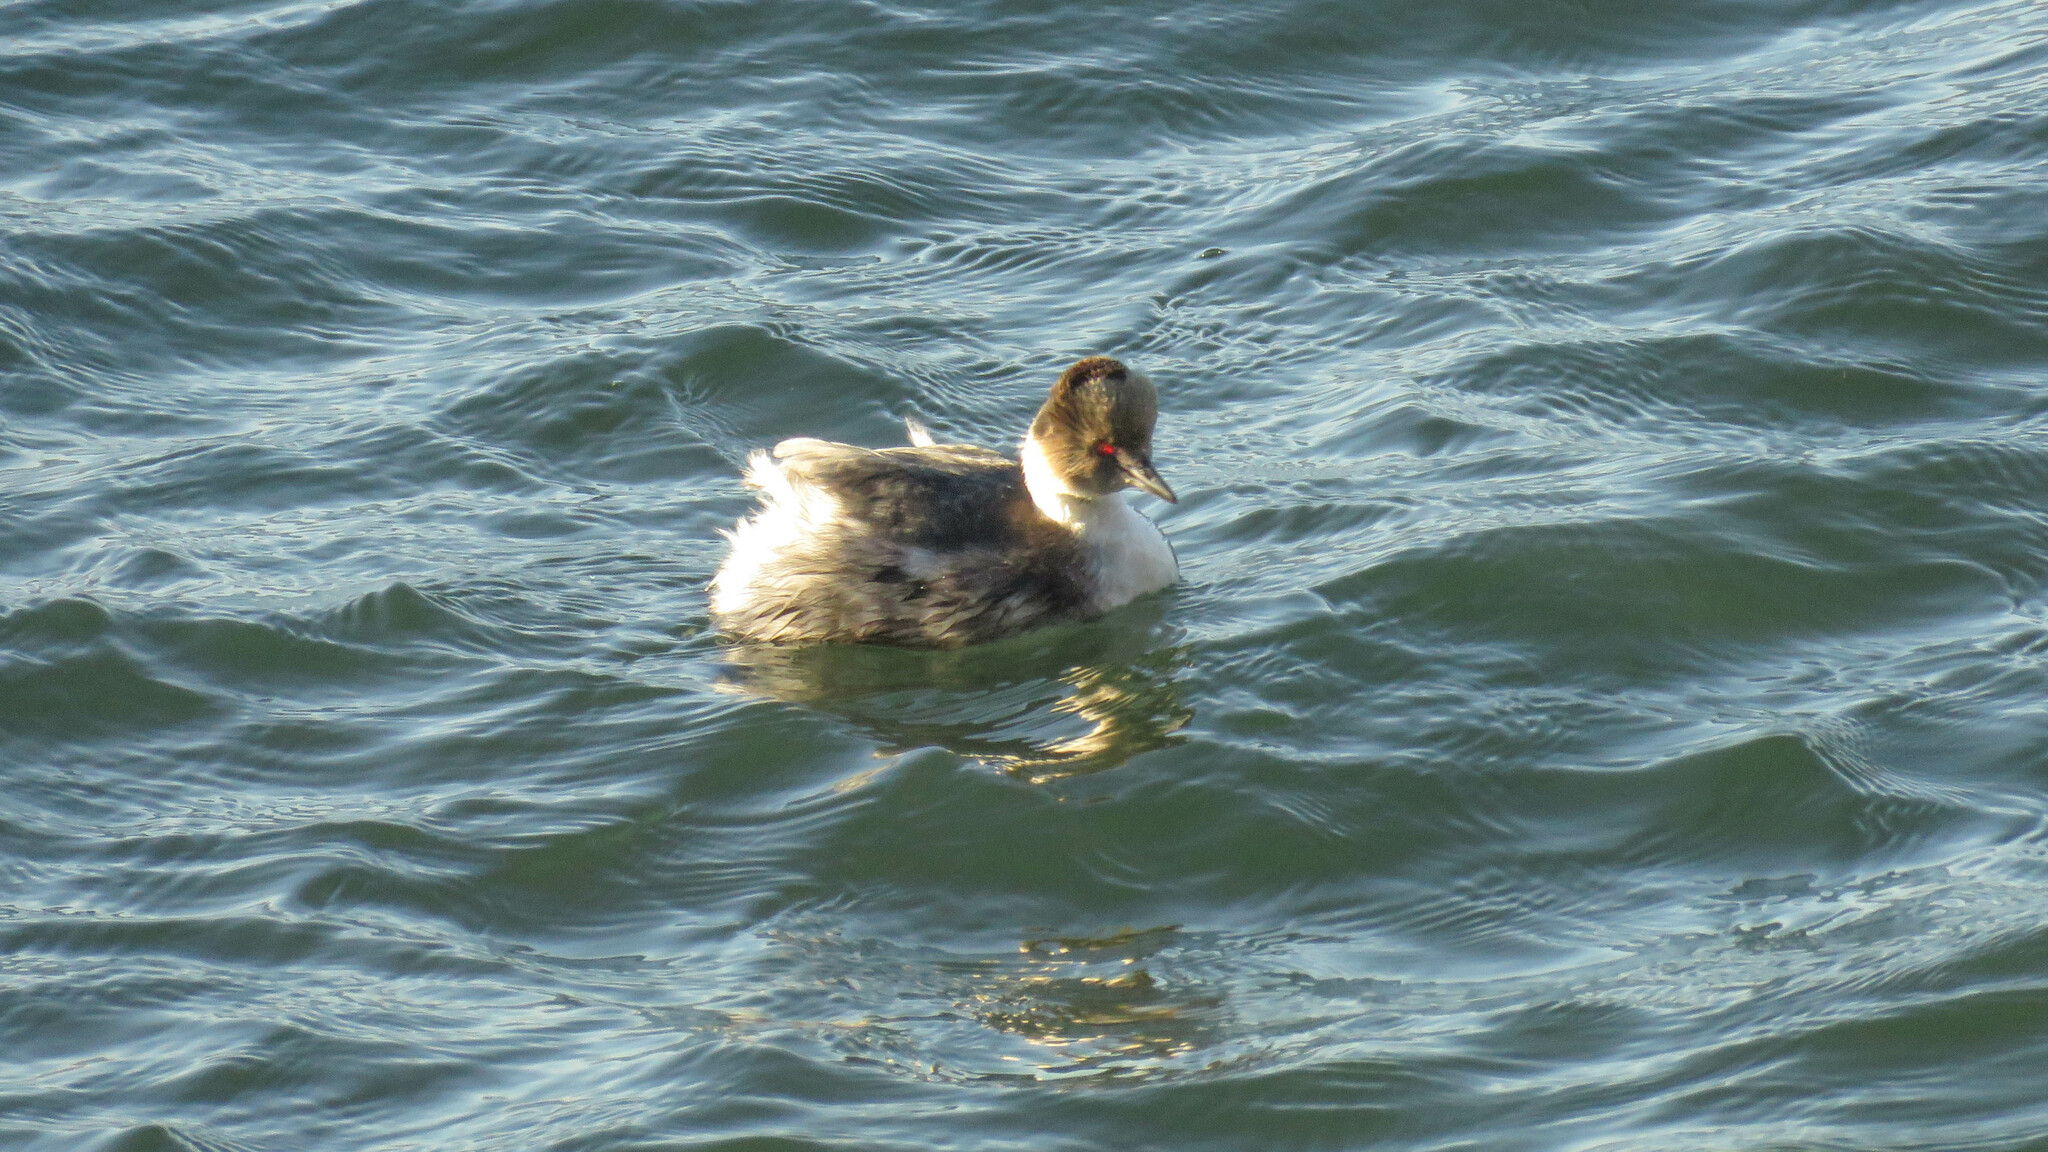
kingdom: Animalia
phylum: Chordata
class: Aves
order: Podicipediformes
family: Podicipedidae
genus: Podiceps
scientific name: Podiceps occipitalis
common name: Silvery grebe
